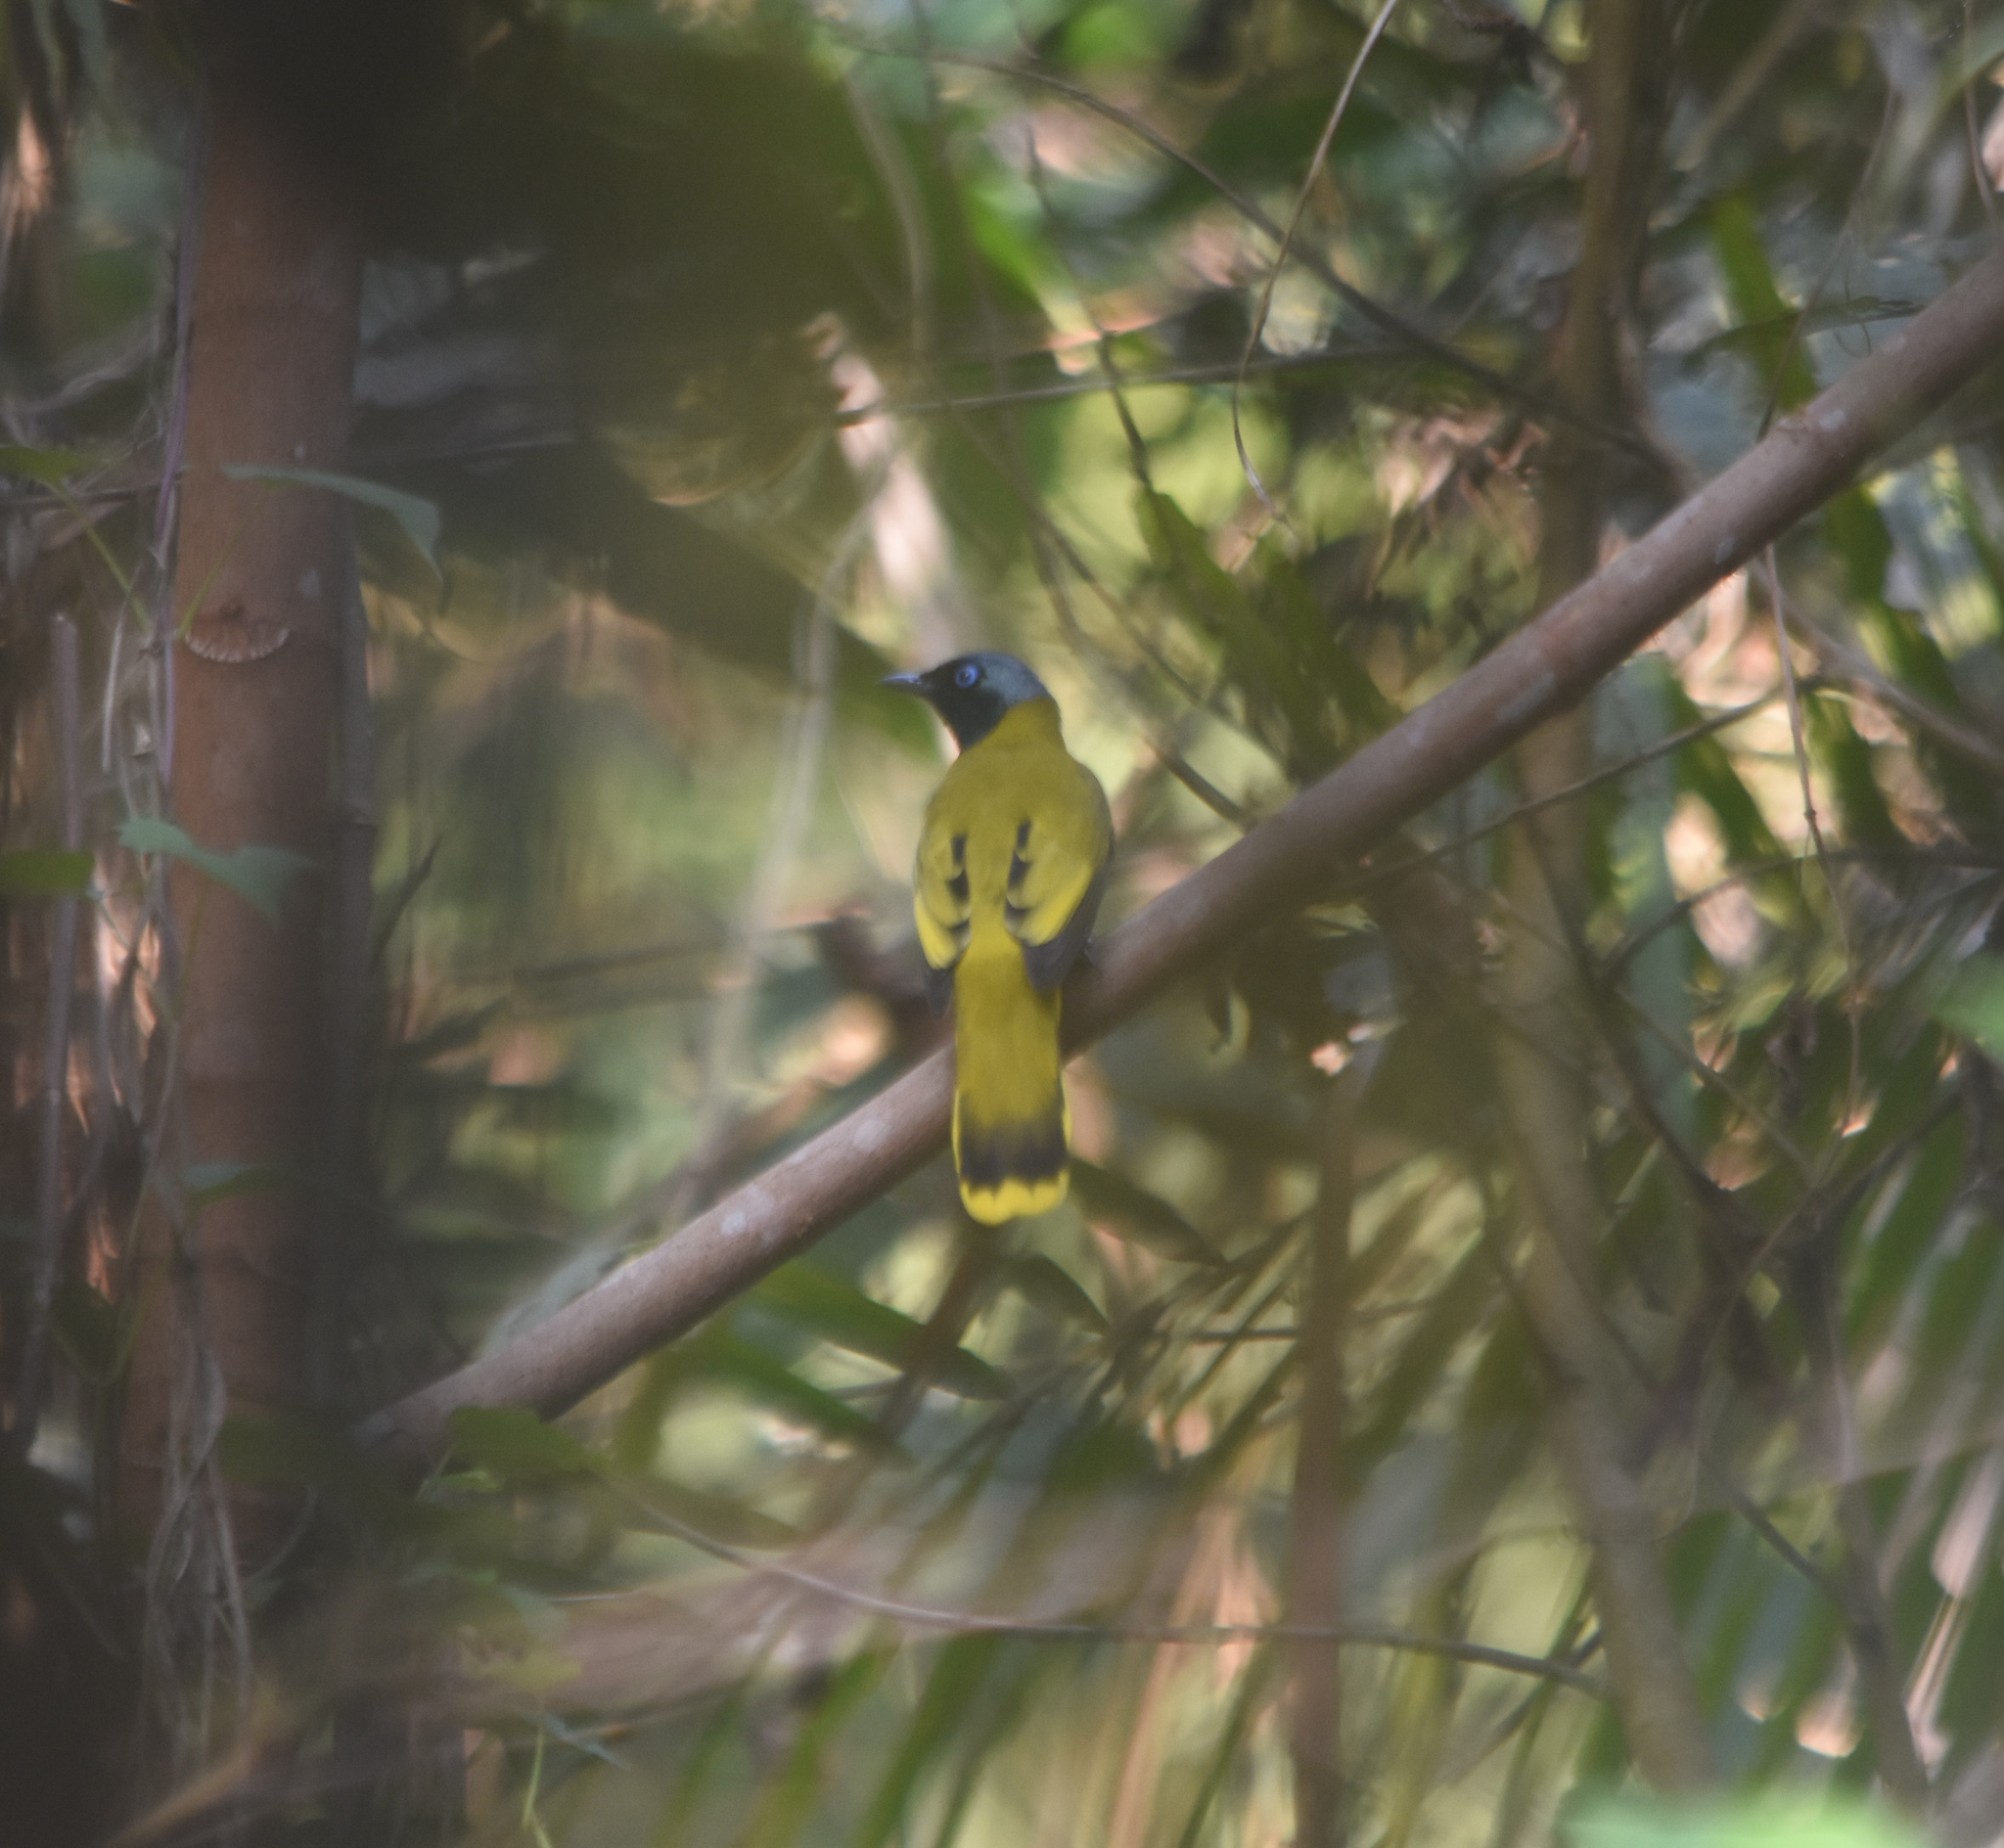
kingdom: Animalia
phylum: Chordata
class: Aves
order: Passeriformes
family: Pycnonotidae
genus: Microtarsus
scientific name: Microtarsus
